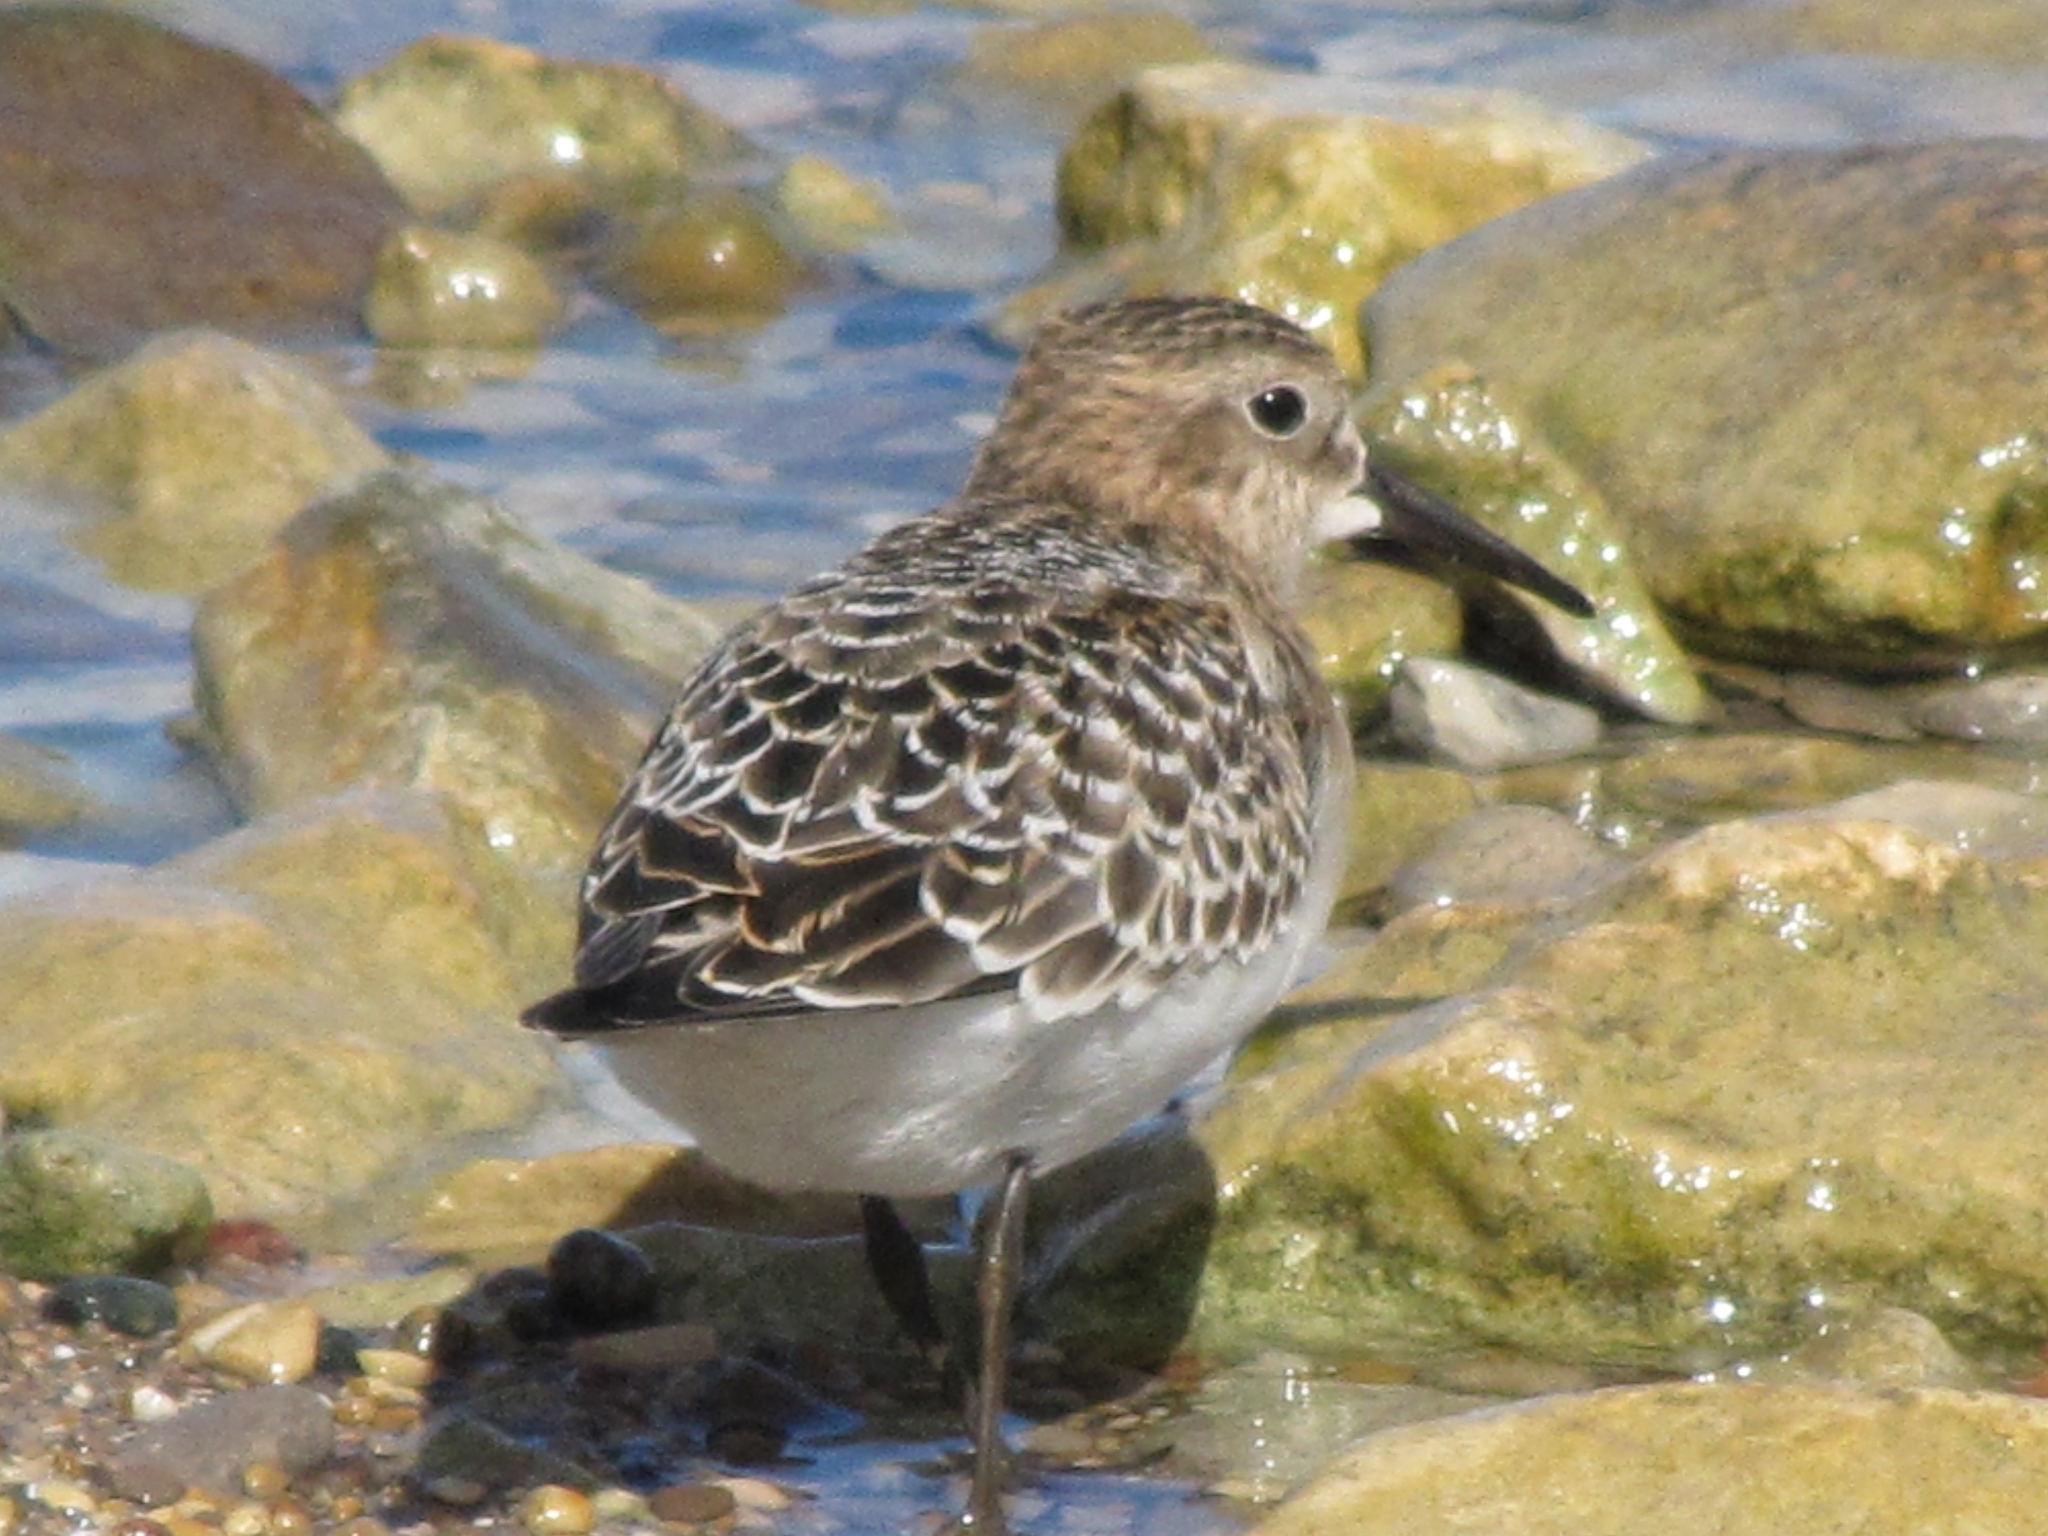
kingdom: Animalia
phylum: Chordata
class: Aves
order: Charadriiformes
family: Scolopacidae
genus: Calidris
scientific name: Calidris bairdii
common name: Baird's sandpiper
